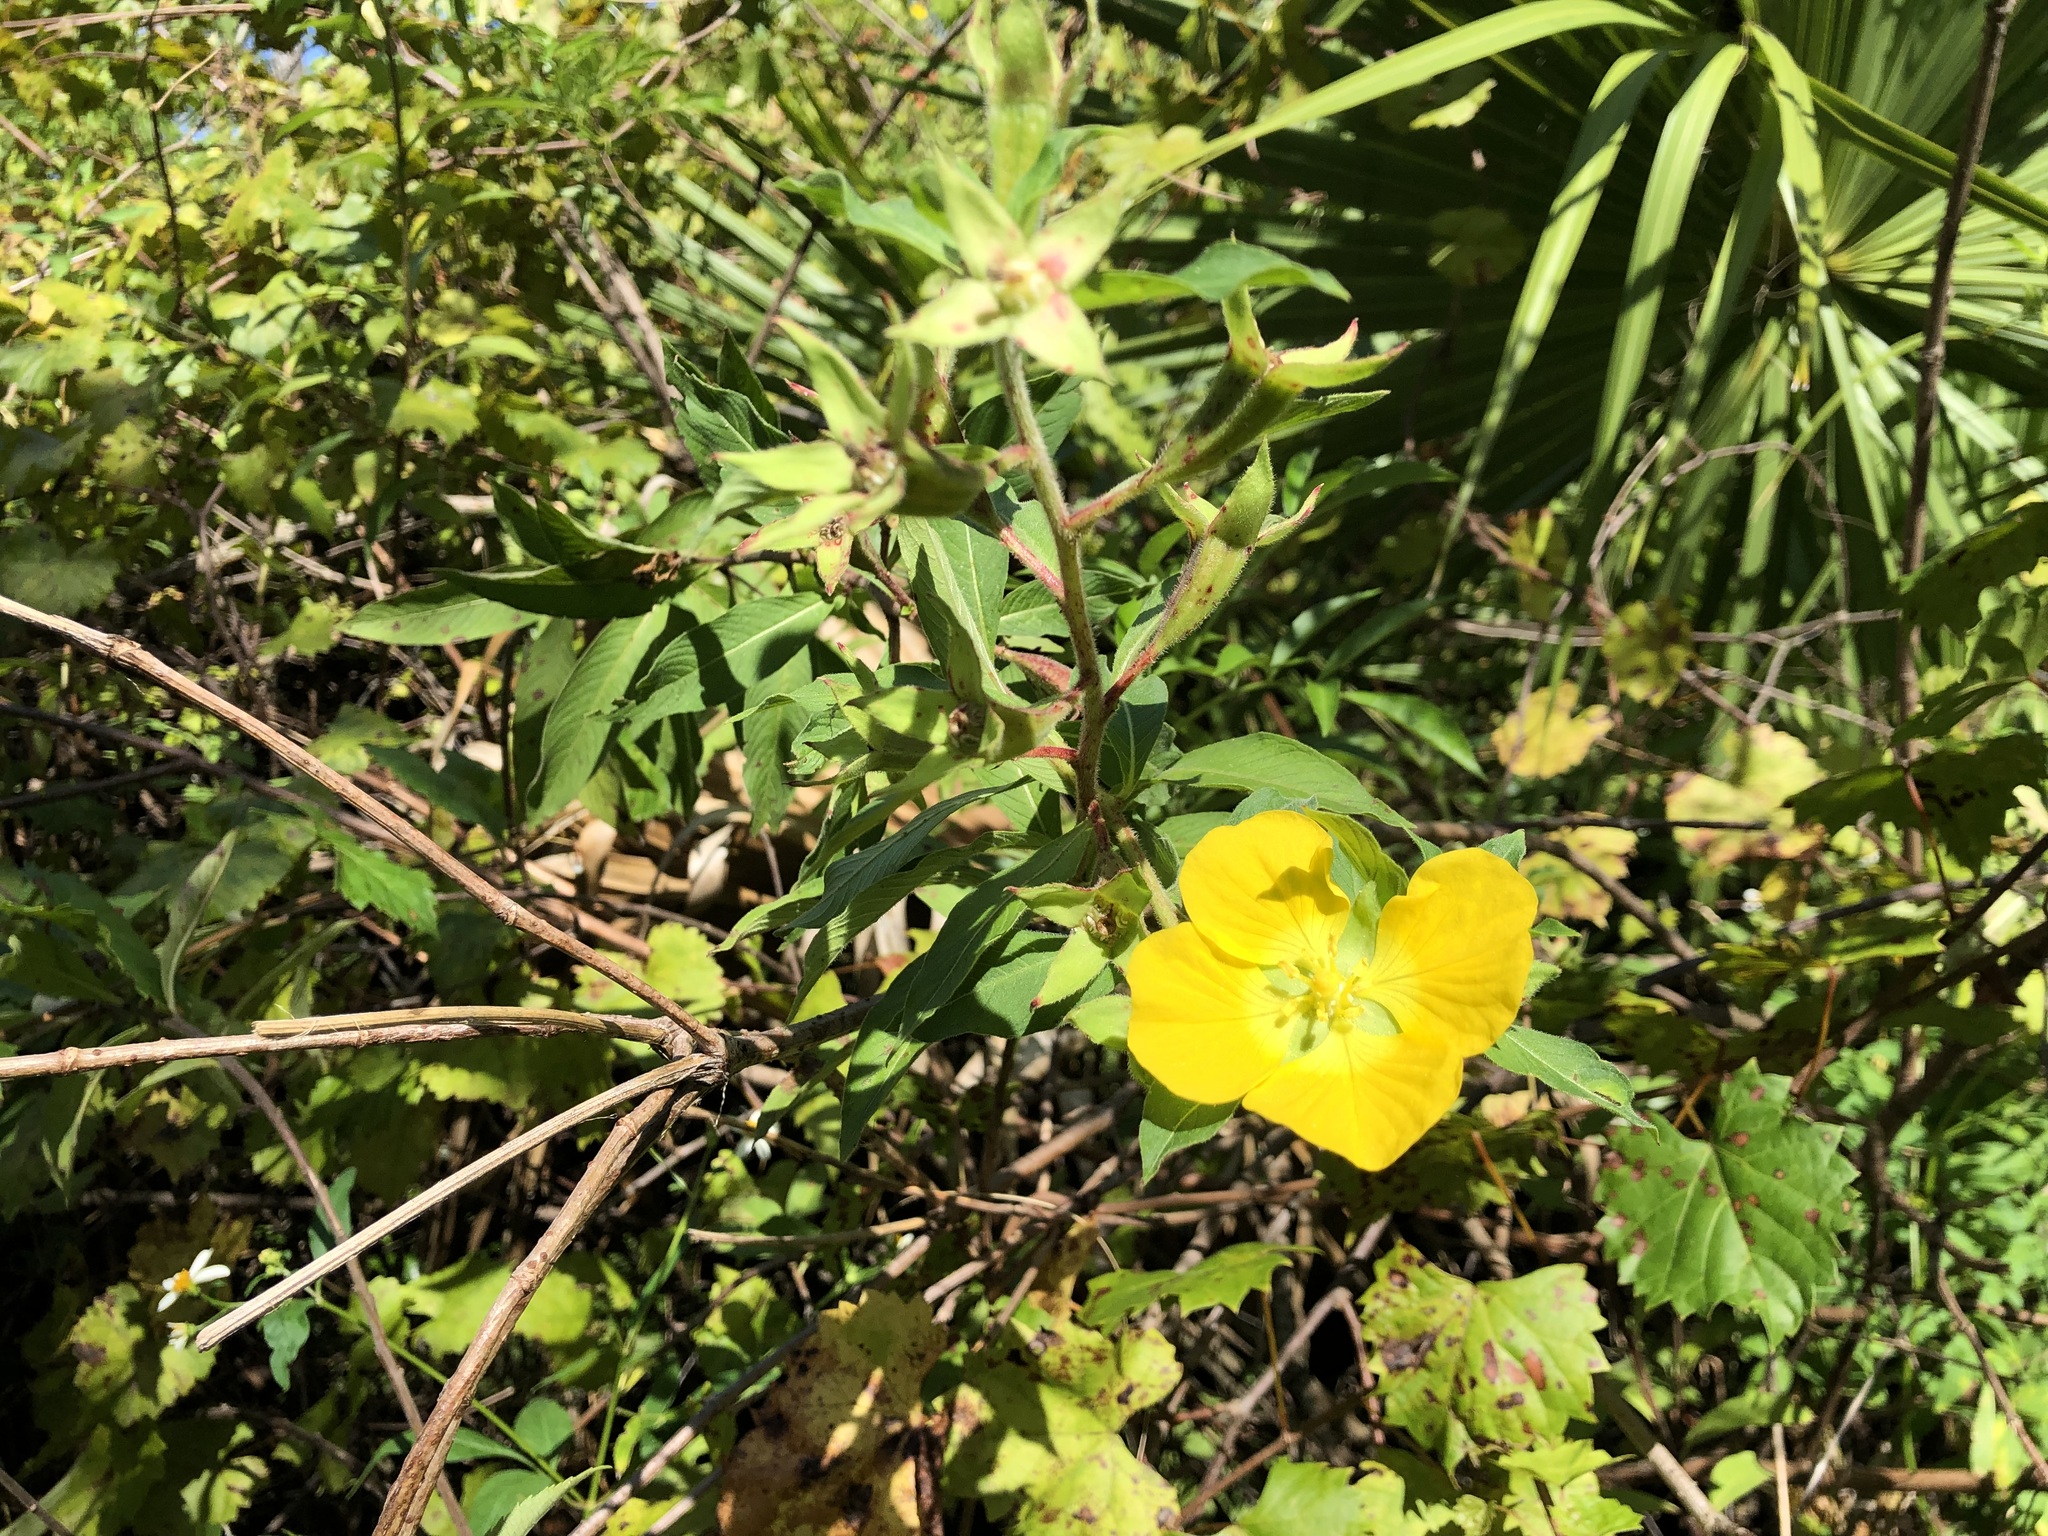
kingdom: Plantae
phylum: Tracheophyta
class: Magnoliopsida
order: Myrtales
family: Onagraceae
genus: Ludwigia
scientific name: Ludwigia peruviana
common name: Peruvian primrose-willow
